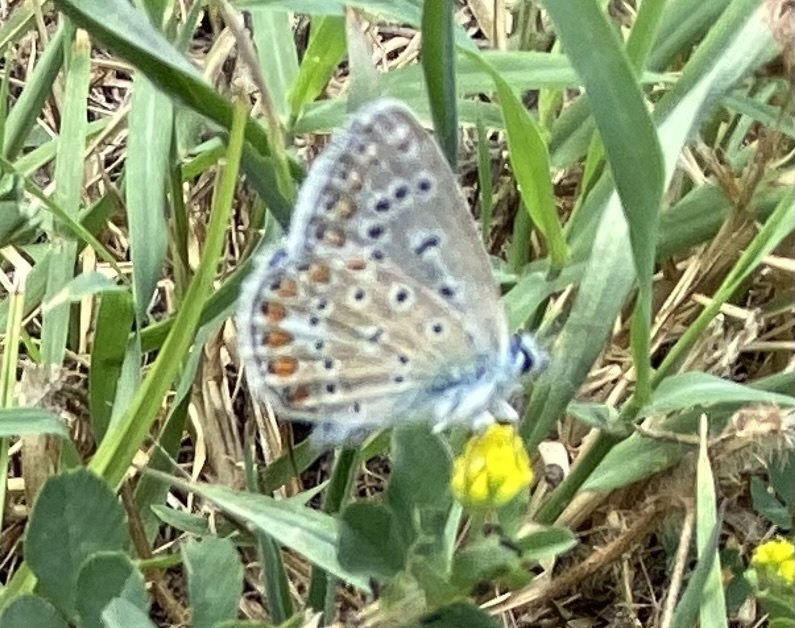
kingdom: Animalia
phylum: Arthropoda
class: Insecta
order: Lepidoptera
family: Lycaenidae
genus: Polyommatus
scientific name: Polyommatus icarus
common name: Common blue
